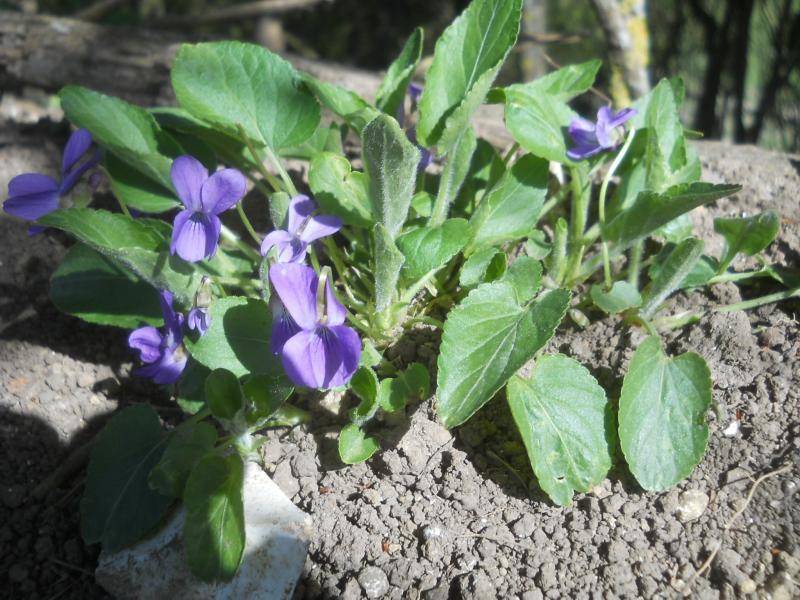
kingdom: Plantae
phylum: Tracheophyta
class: Magnoliopsida
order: Malpighiales
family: Violaceae
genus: Viola
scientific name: Viola hirta
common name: Hairy violet
